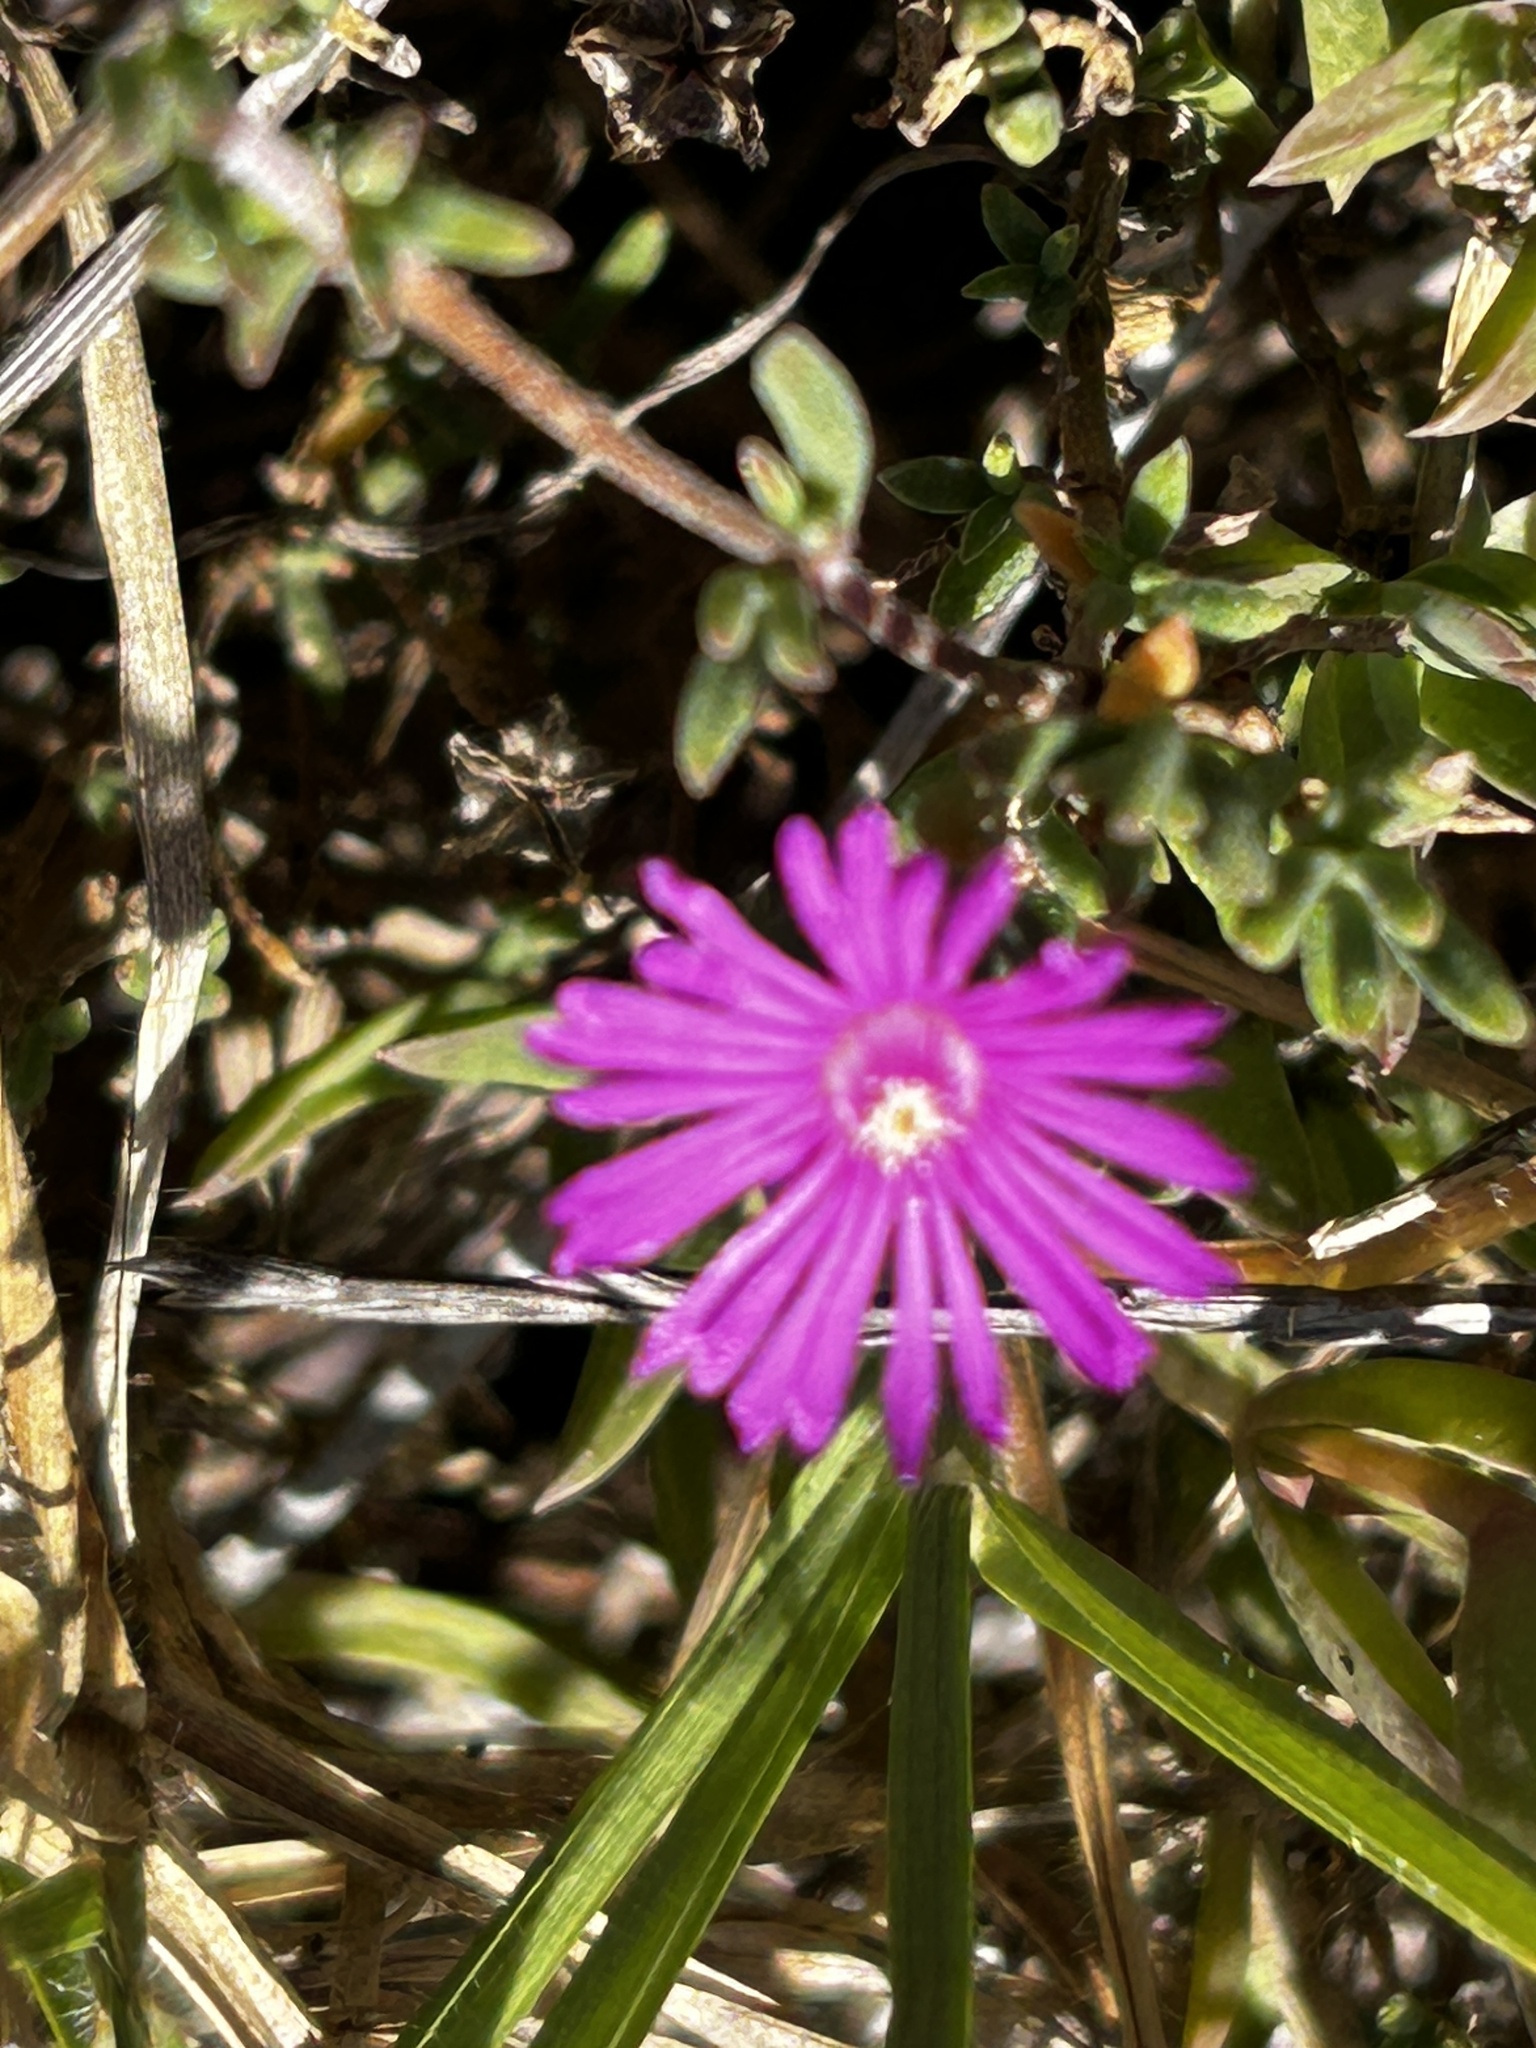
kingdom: Plantae
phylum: Tracheophyta
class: Magnoliopsida
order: Caryophyllales
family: Aizoaceae
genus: Drosanthemum
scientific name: Drosanthemum calcareum
